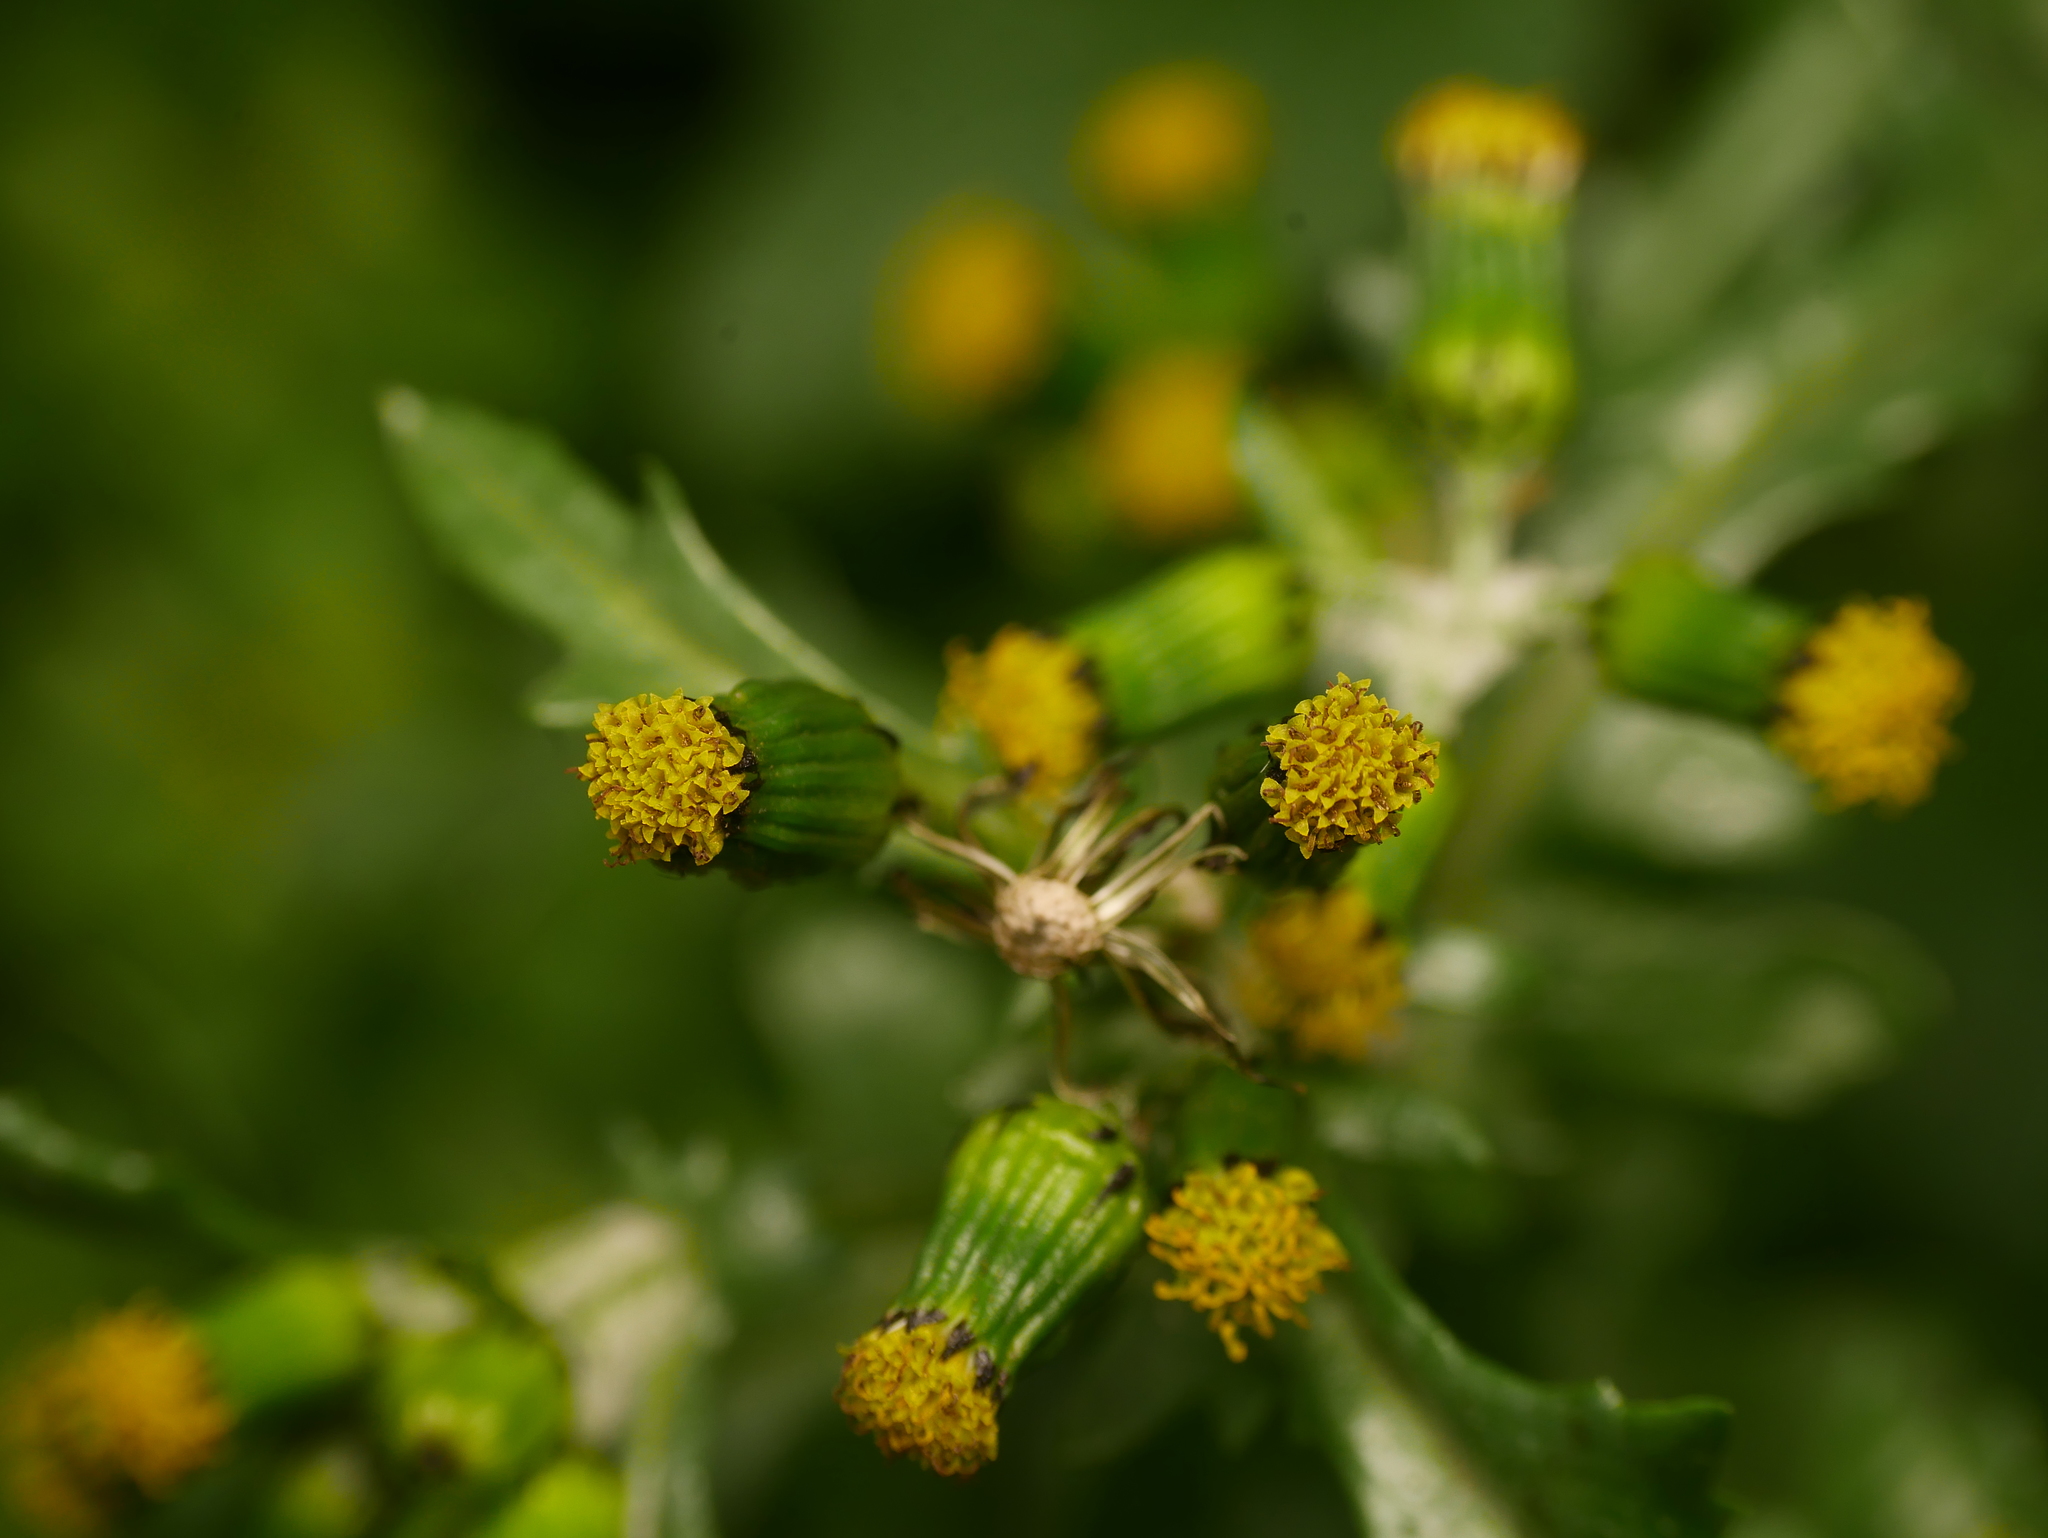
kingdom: Plantae
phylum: Tracheophyta
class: Magnoliopsida
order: Asterales
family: Asteraceae
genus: Senecio
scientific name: Senecio vulgaris
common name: Old-man-in-the-spring
